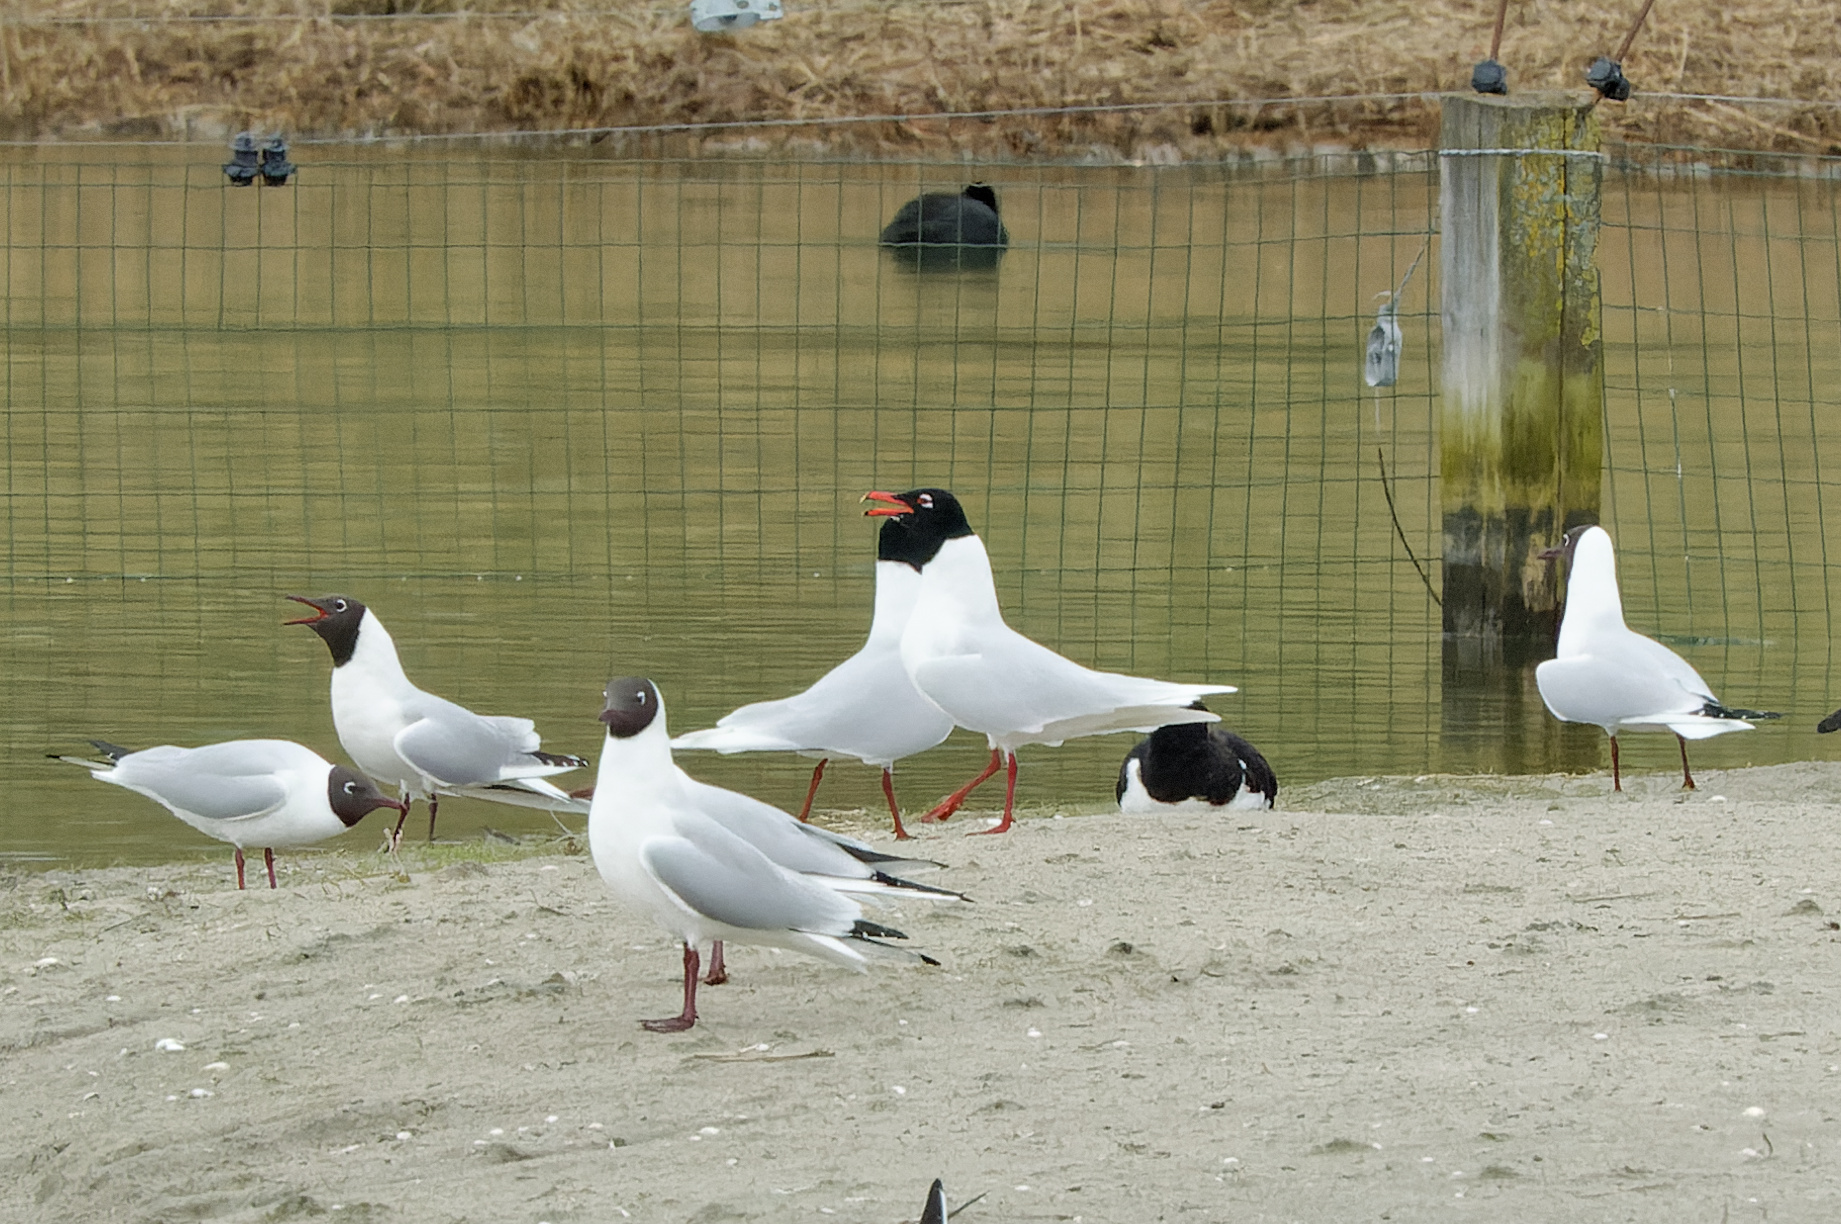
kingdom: Animalia
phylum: Chordata
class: Aves
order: Charadriiformes
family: Laridae
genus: Ichthyaetus
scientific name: Ichthyaetus melanocephalus
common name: Mediterranean gull
